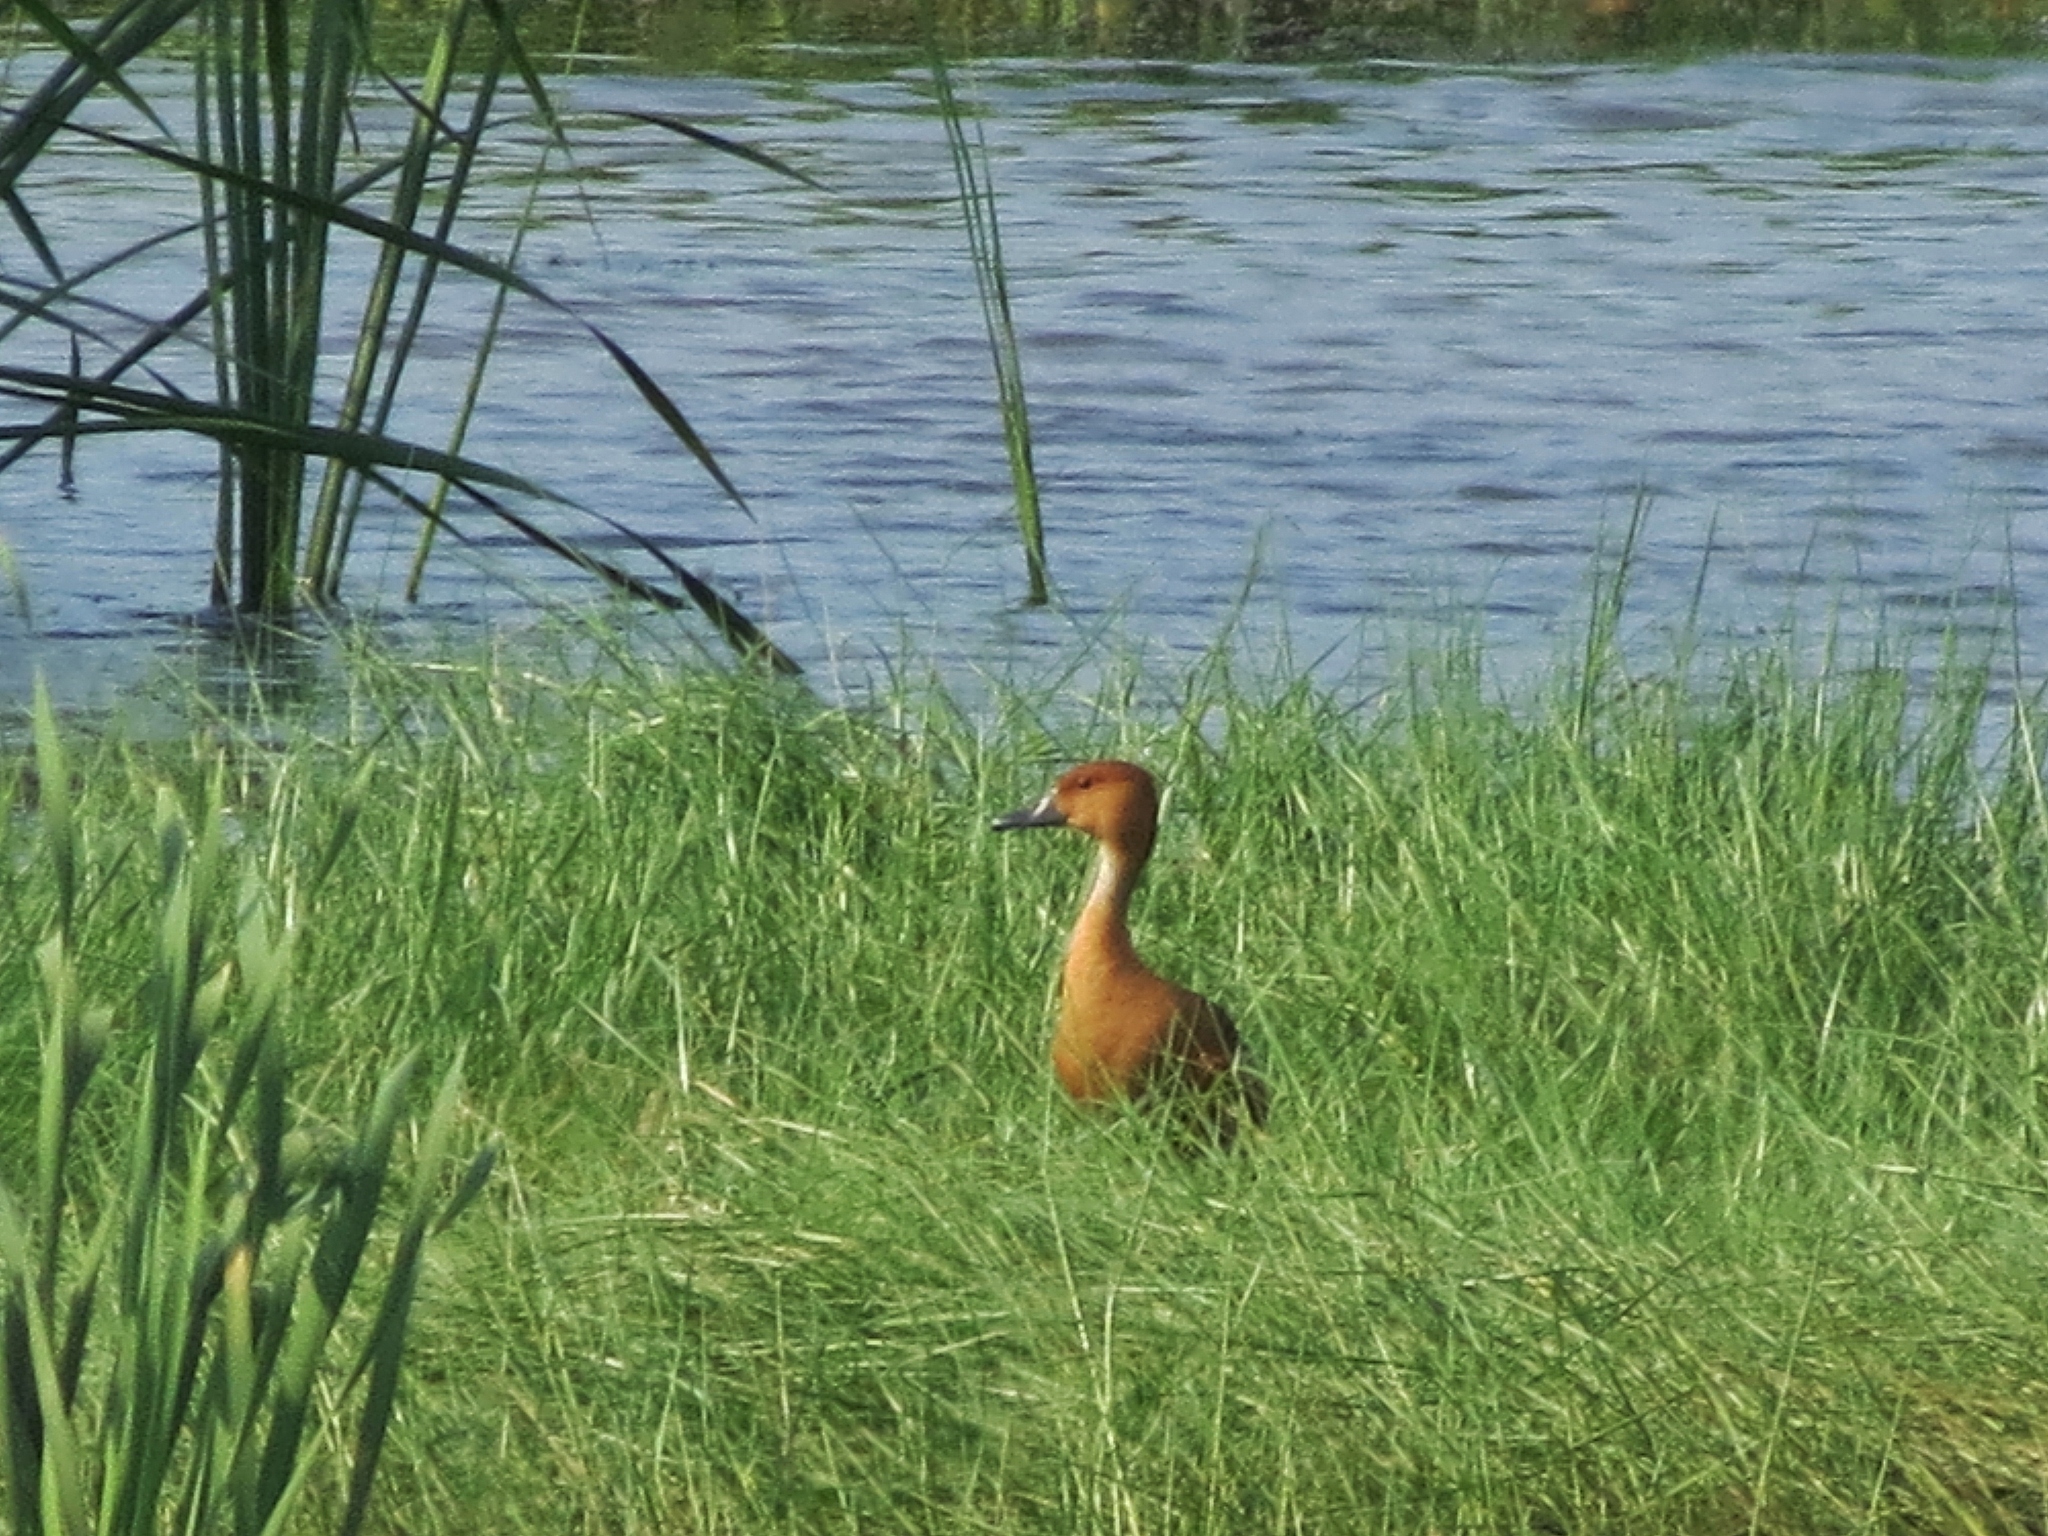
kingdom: Animalia
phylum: Chordata
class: Aves
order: Anseriformes
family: Anatidae
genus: Dendrocygna
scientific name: Dendrocygna bicolor
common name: Fulvous whistling duck
